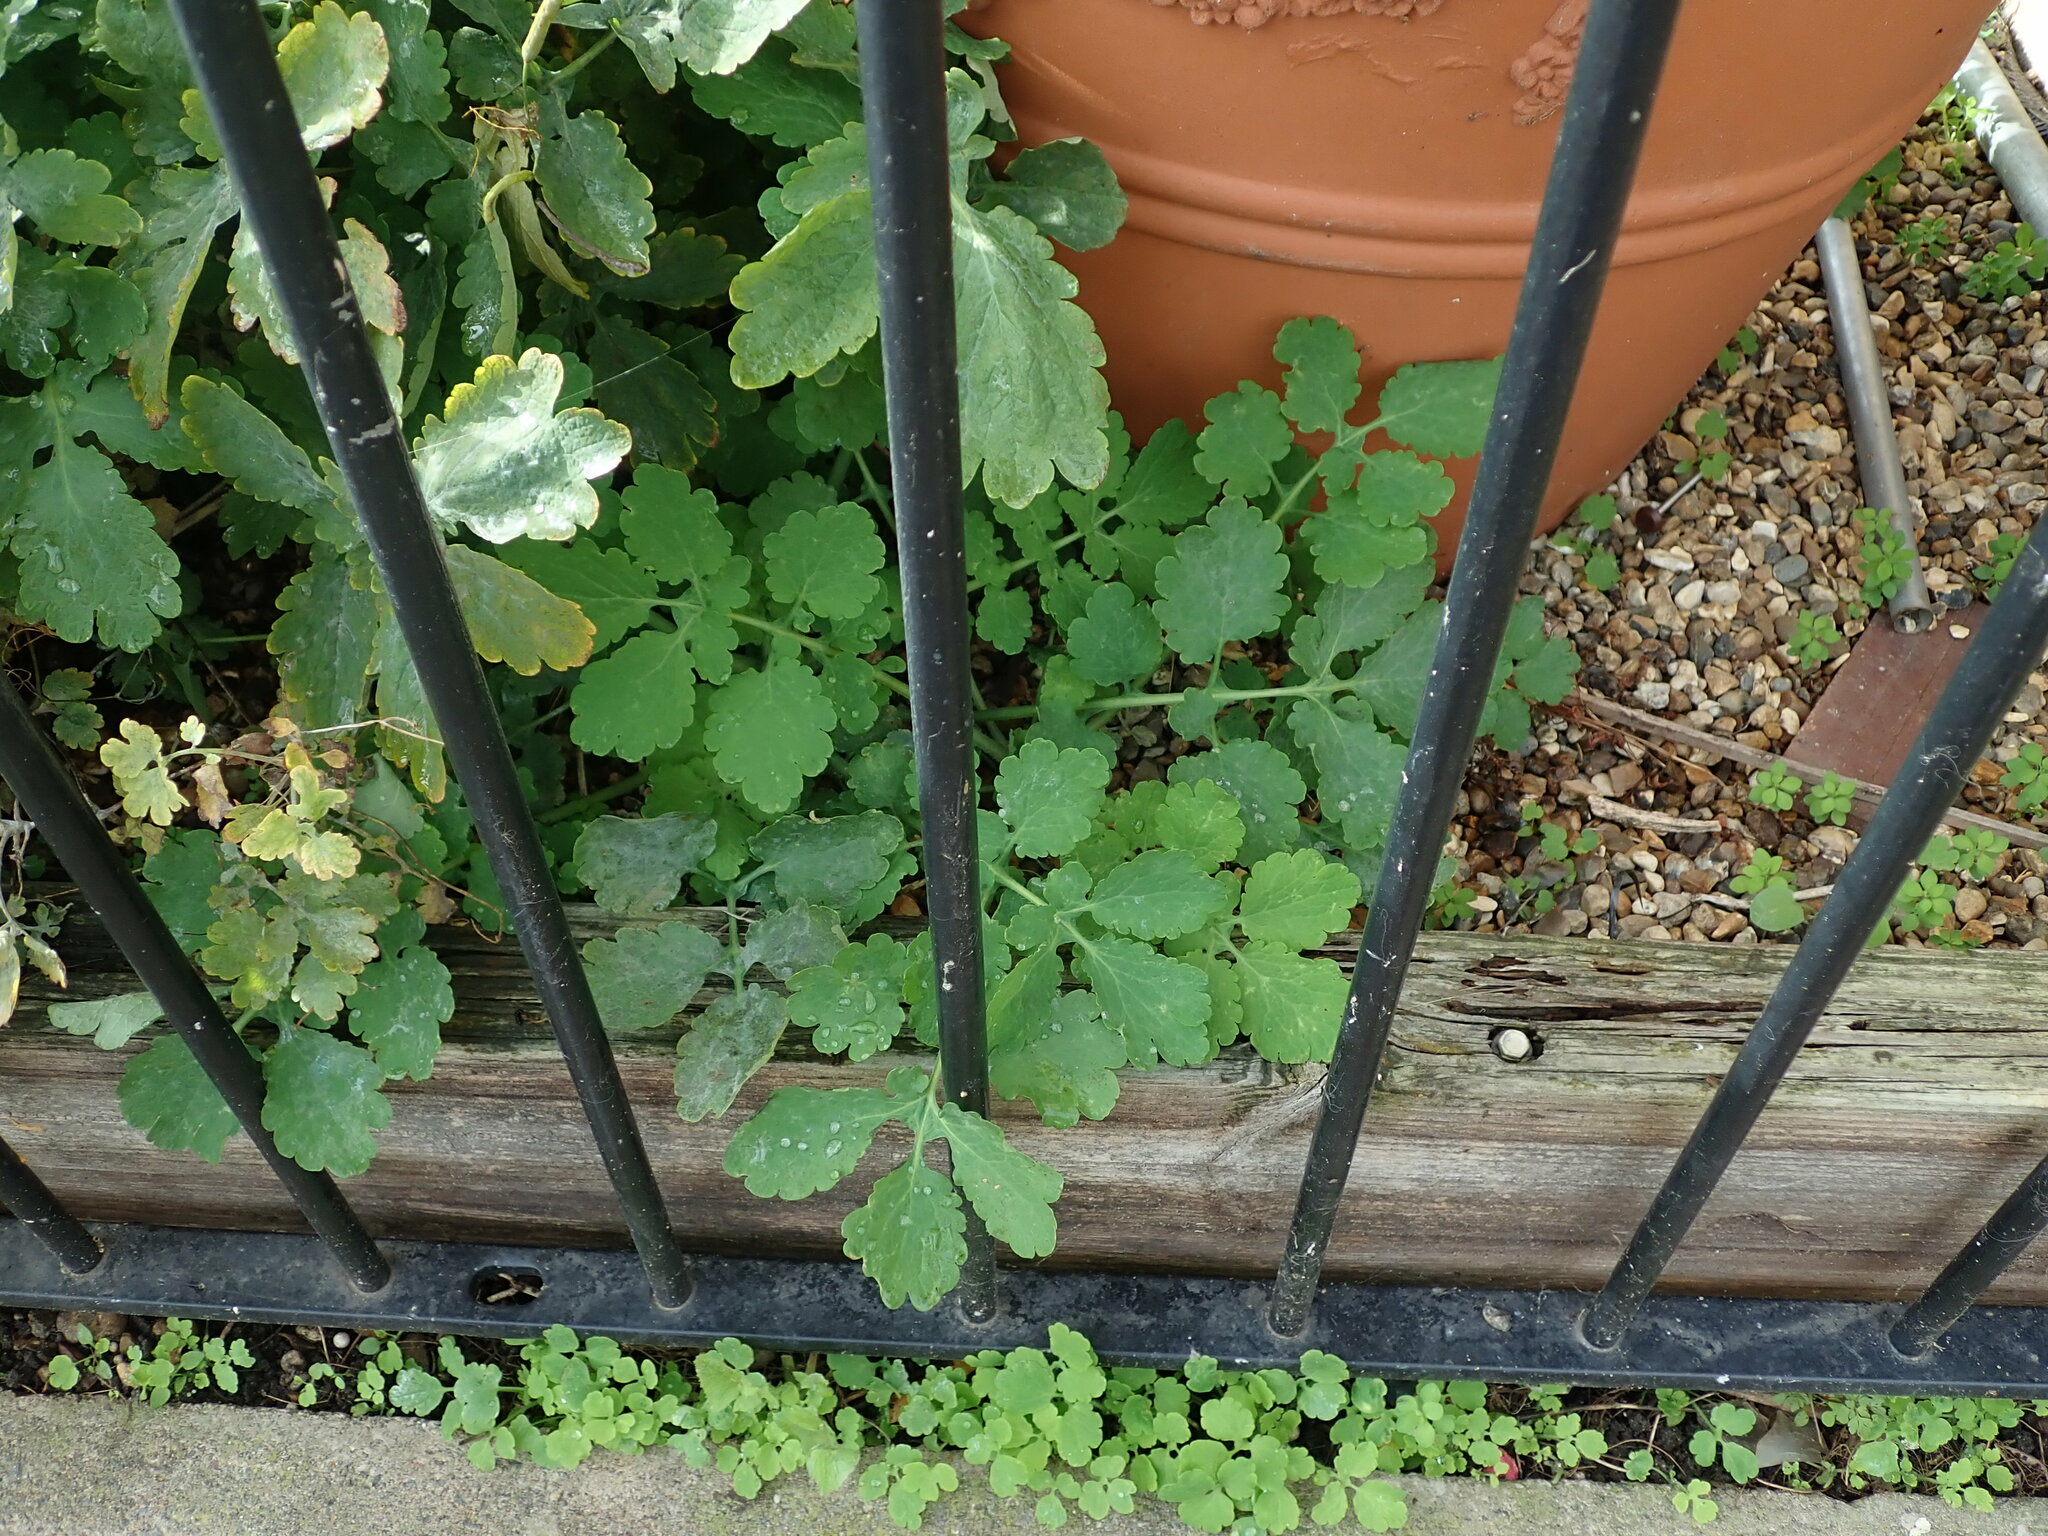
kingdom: Plantae
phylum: Tracheophyta
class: Magnoliopsida
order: Ranunculales
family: Papaveraceae
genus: Chelidonium
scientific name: Chelidonium majus
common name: Greater celandine
